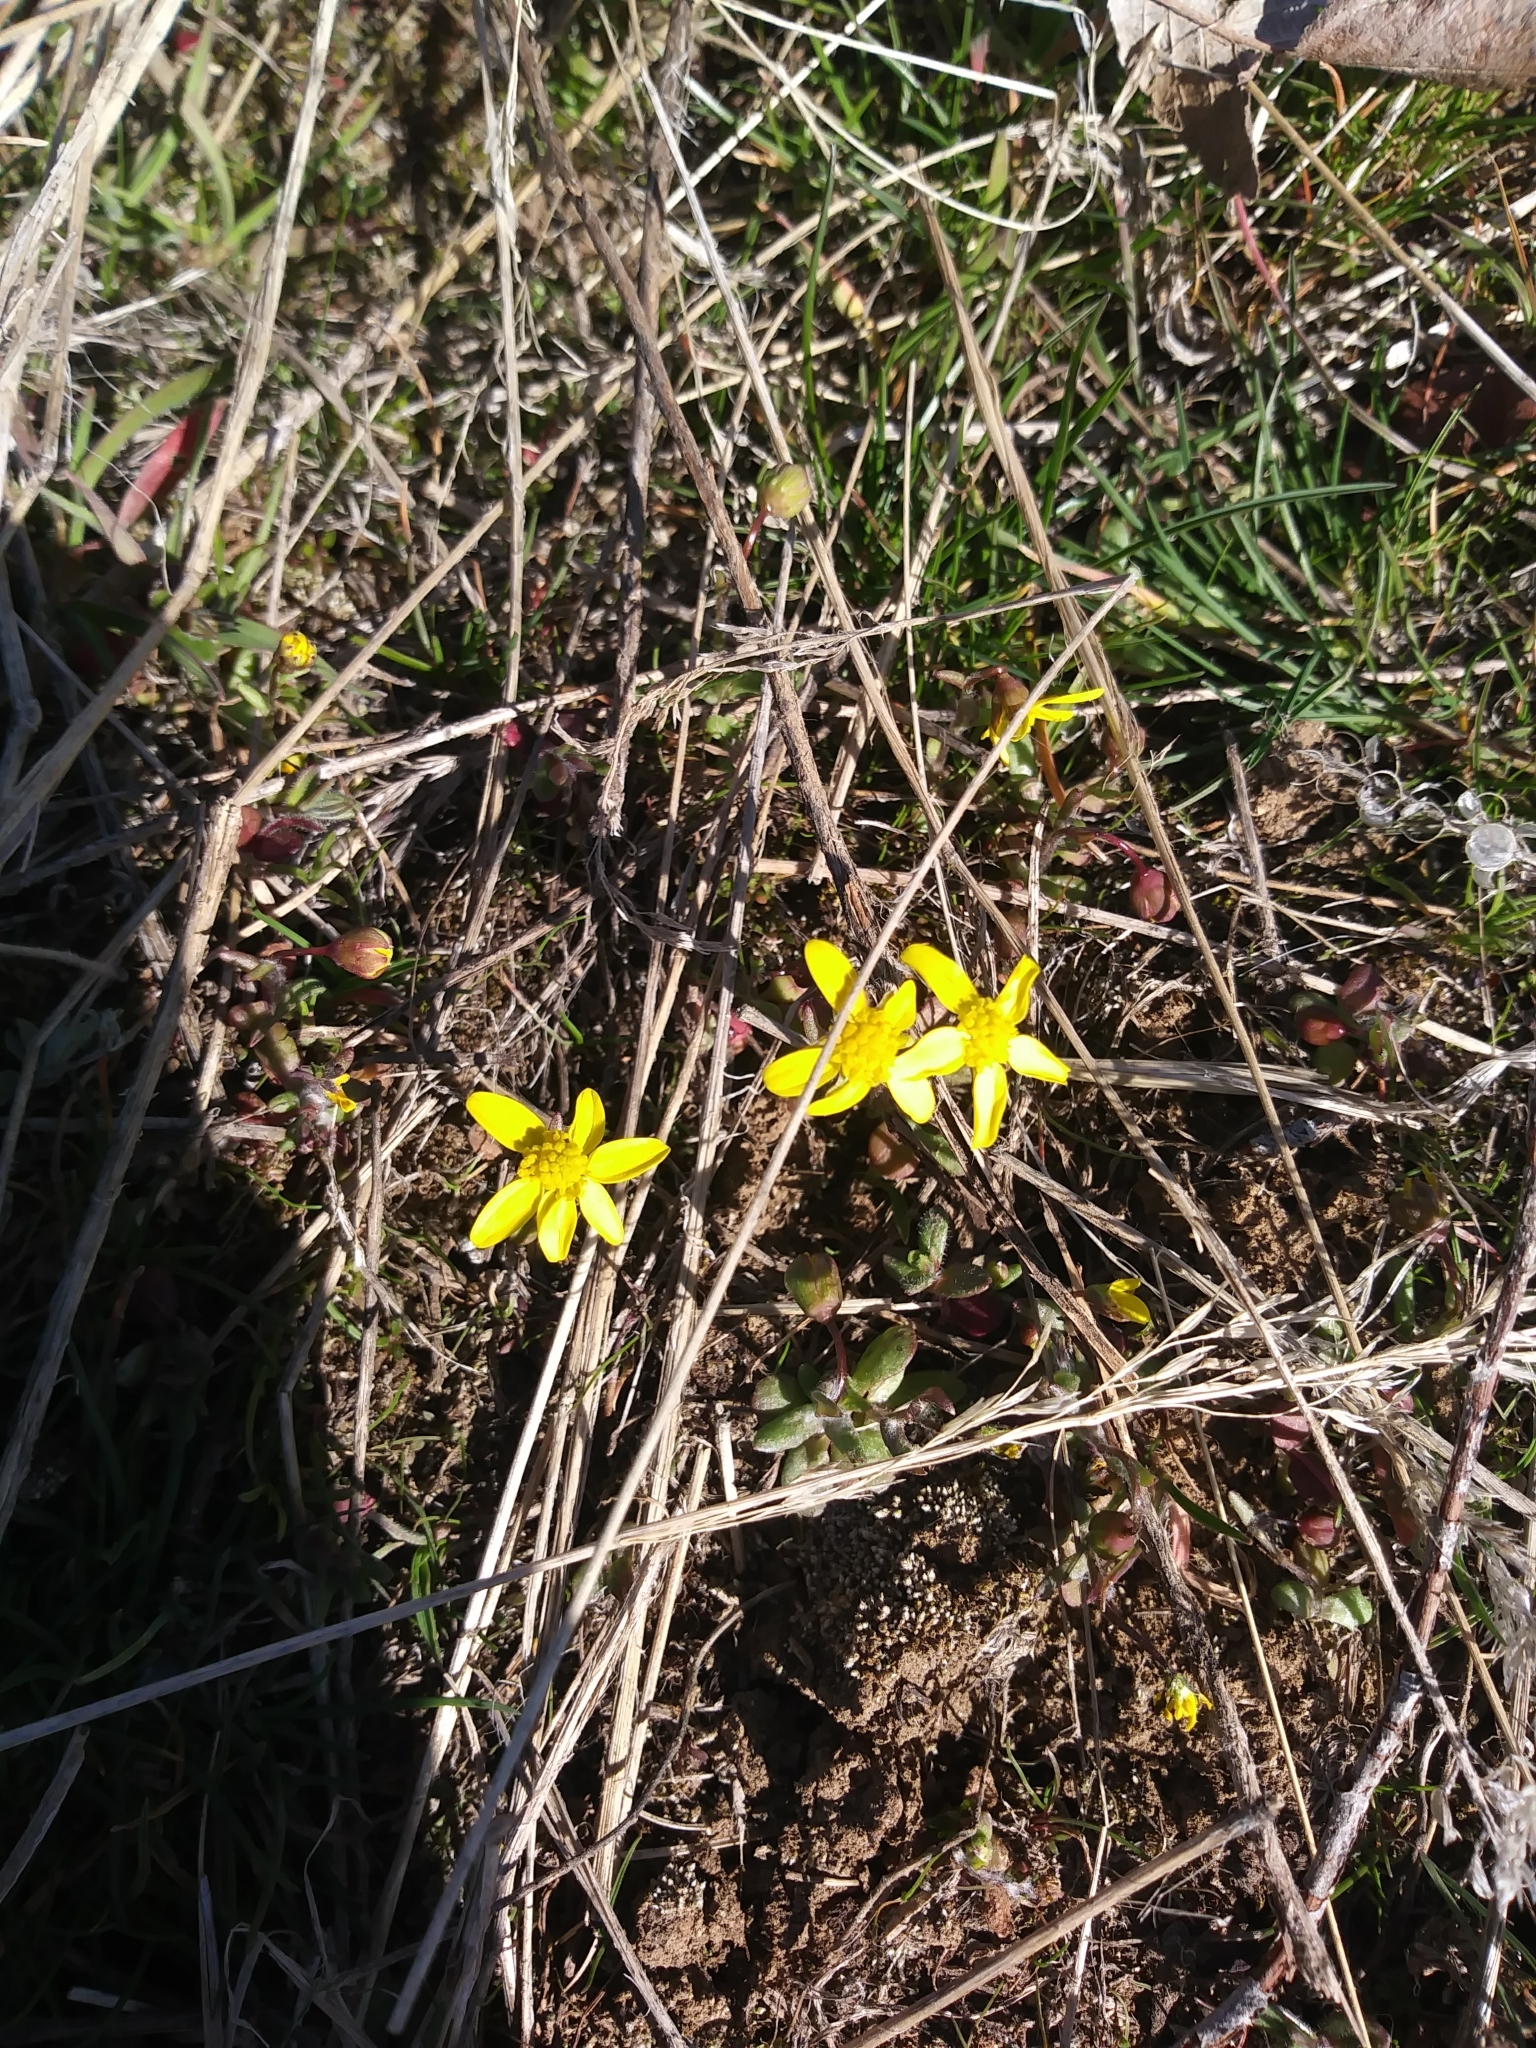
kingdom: Plantae
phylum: Tracheophyta
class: Magnoliopsida
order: Asterales
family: Asteraceae
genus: Crocidium
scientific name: Crocidium multicaule
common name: Common spring gold
